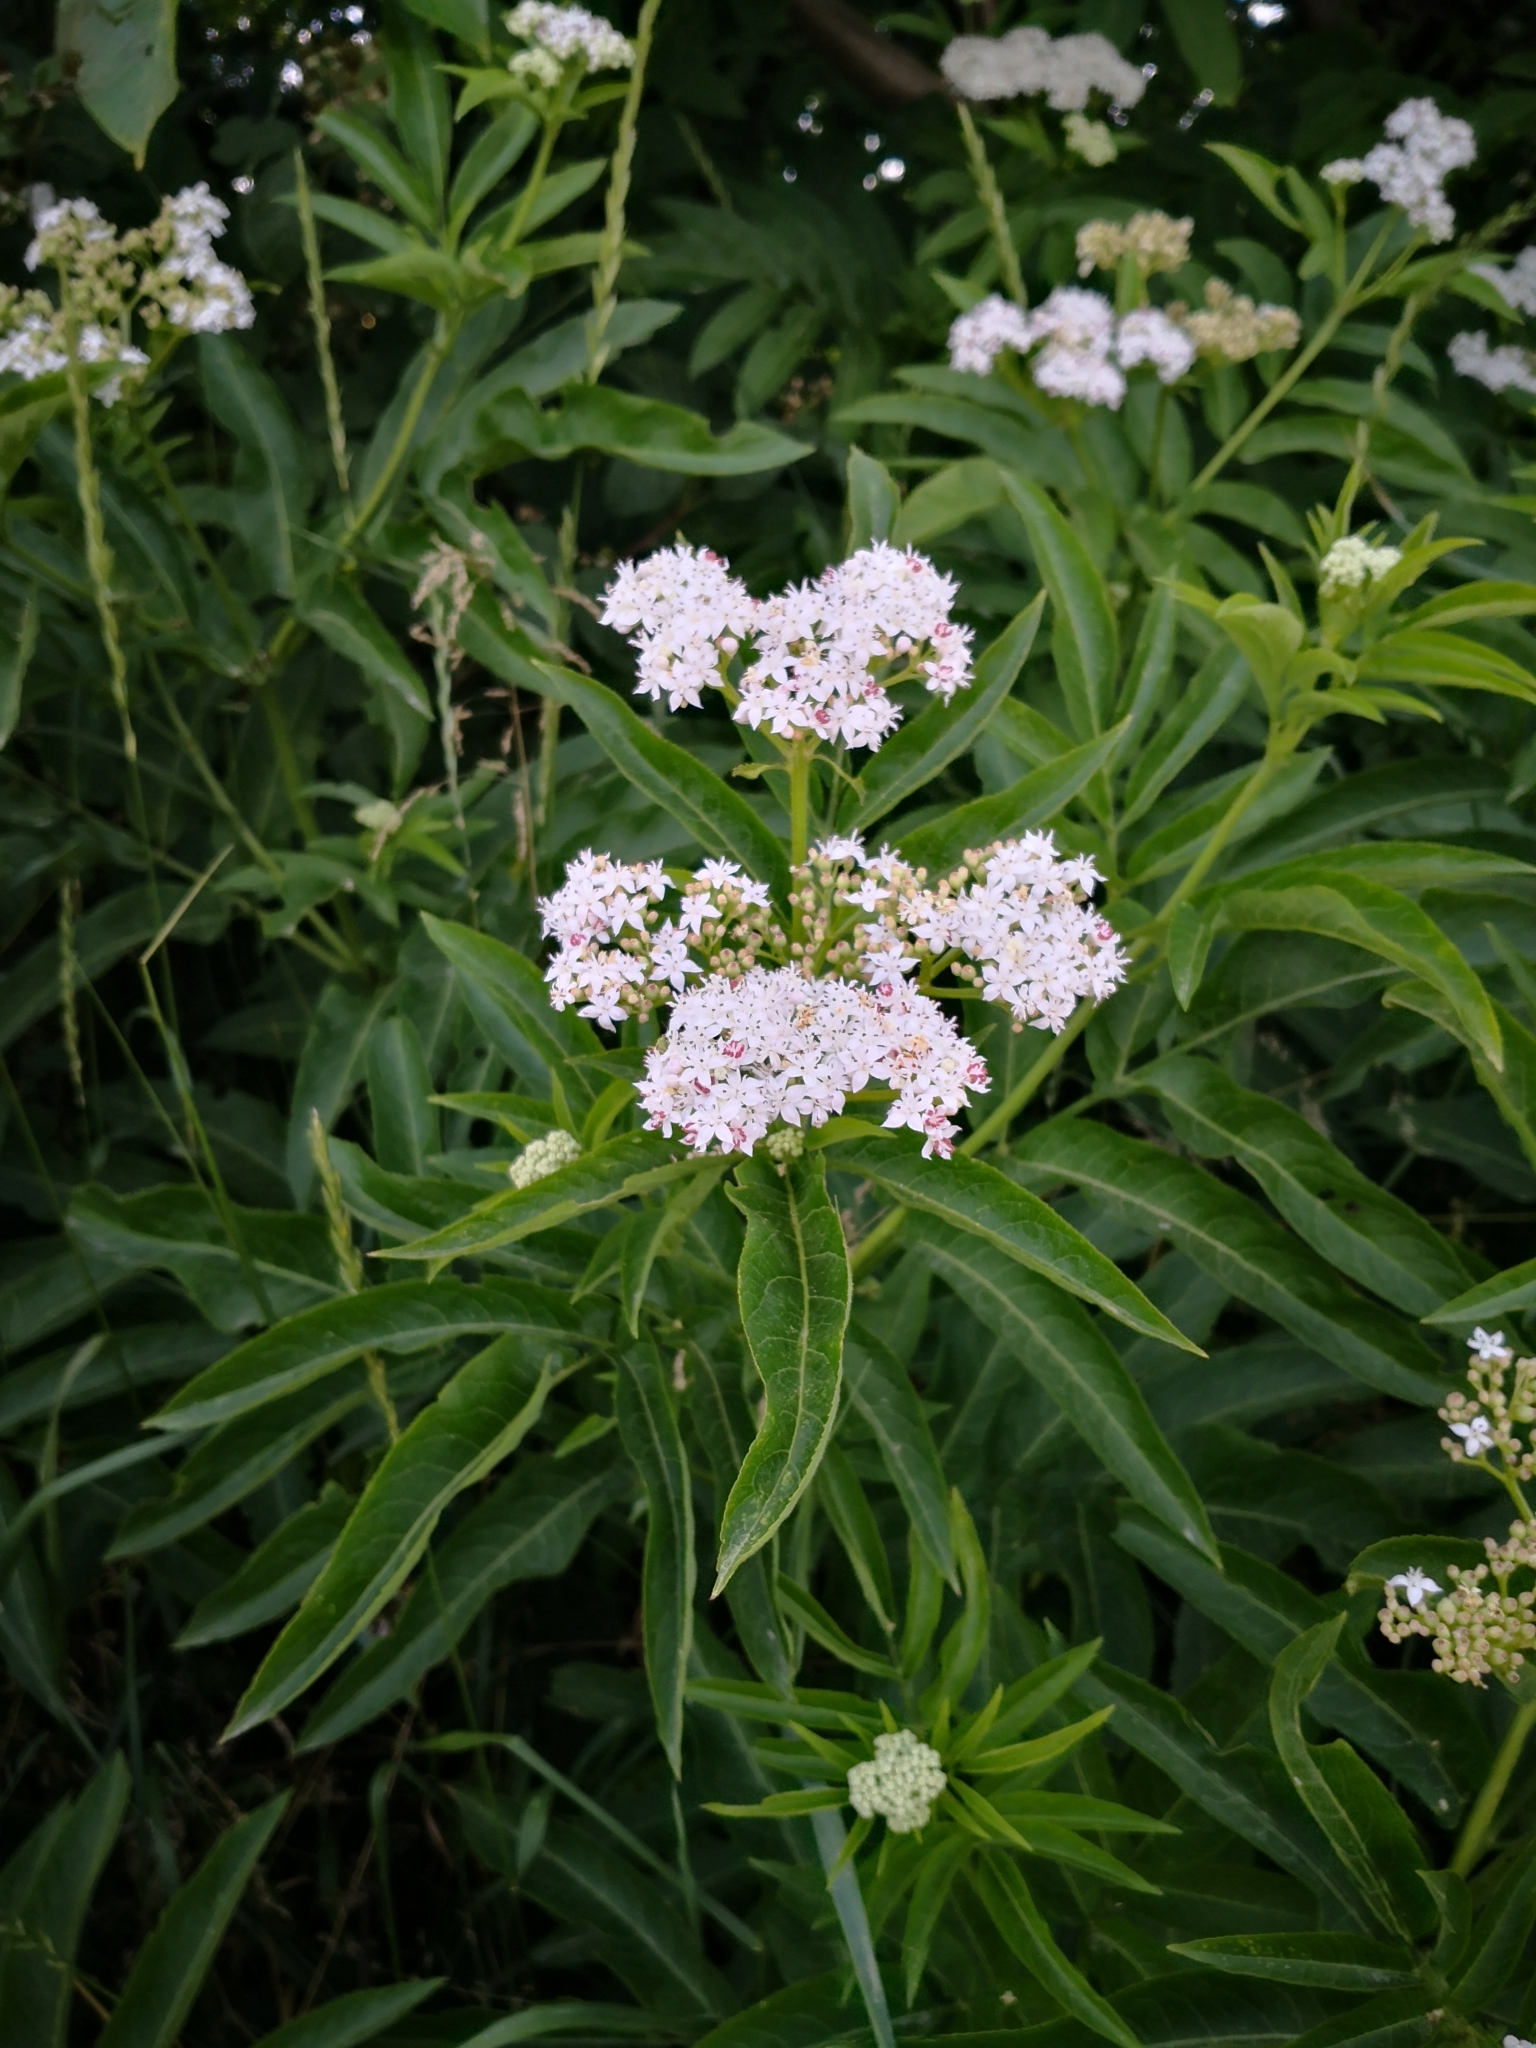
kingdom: Plantae
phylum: Tracheophyta
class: Magnoliopsida
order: Dipsacales
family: Viburnaceae
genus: Sambucus
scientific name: Sambucus ebulus
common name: Dwarf elder
